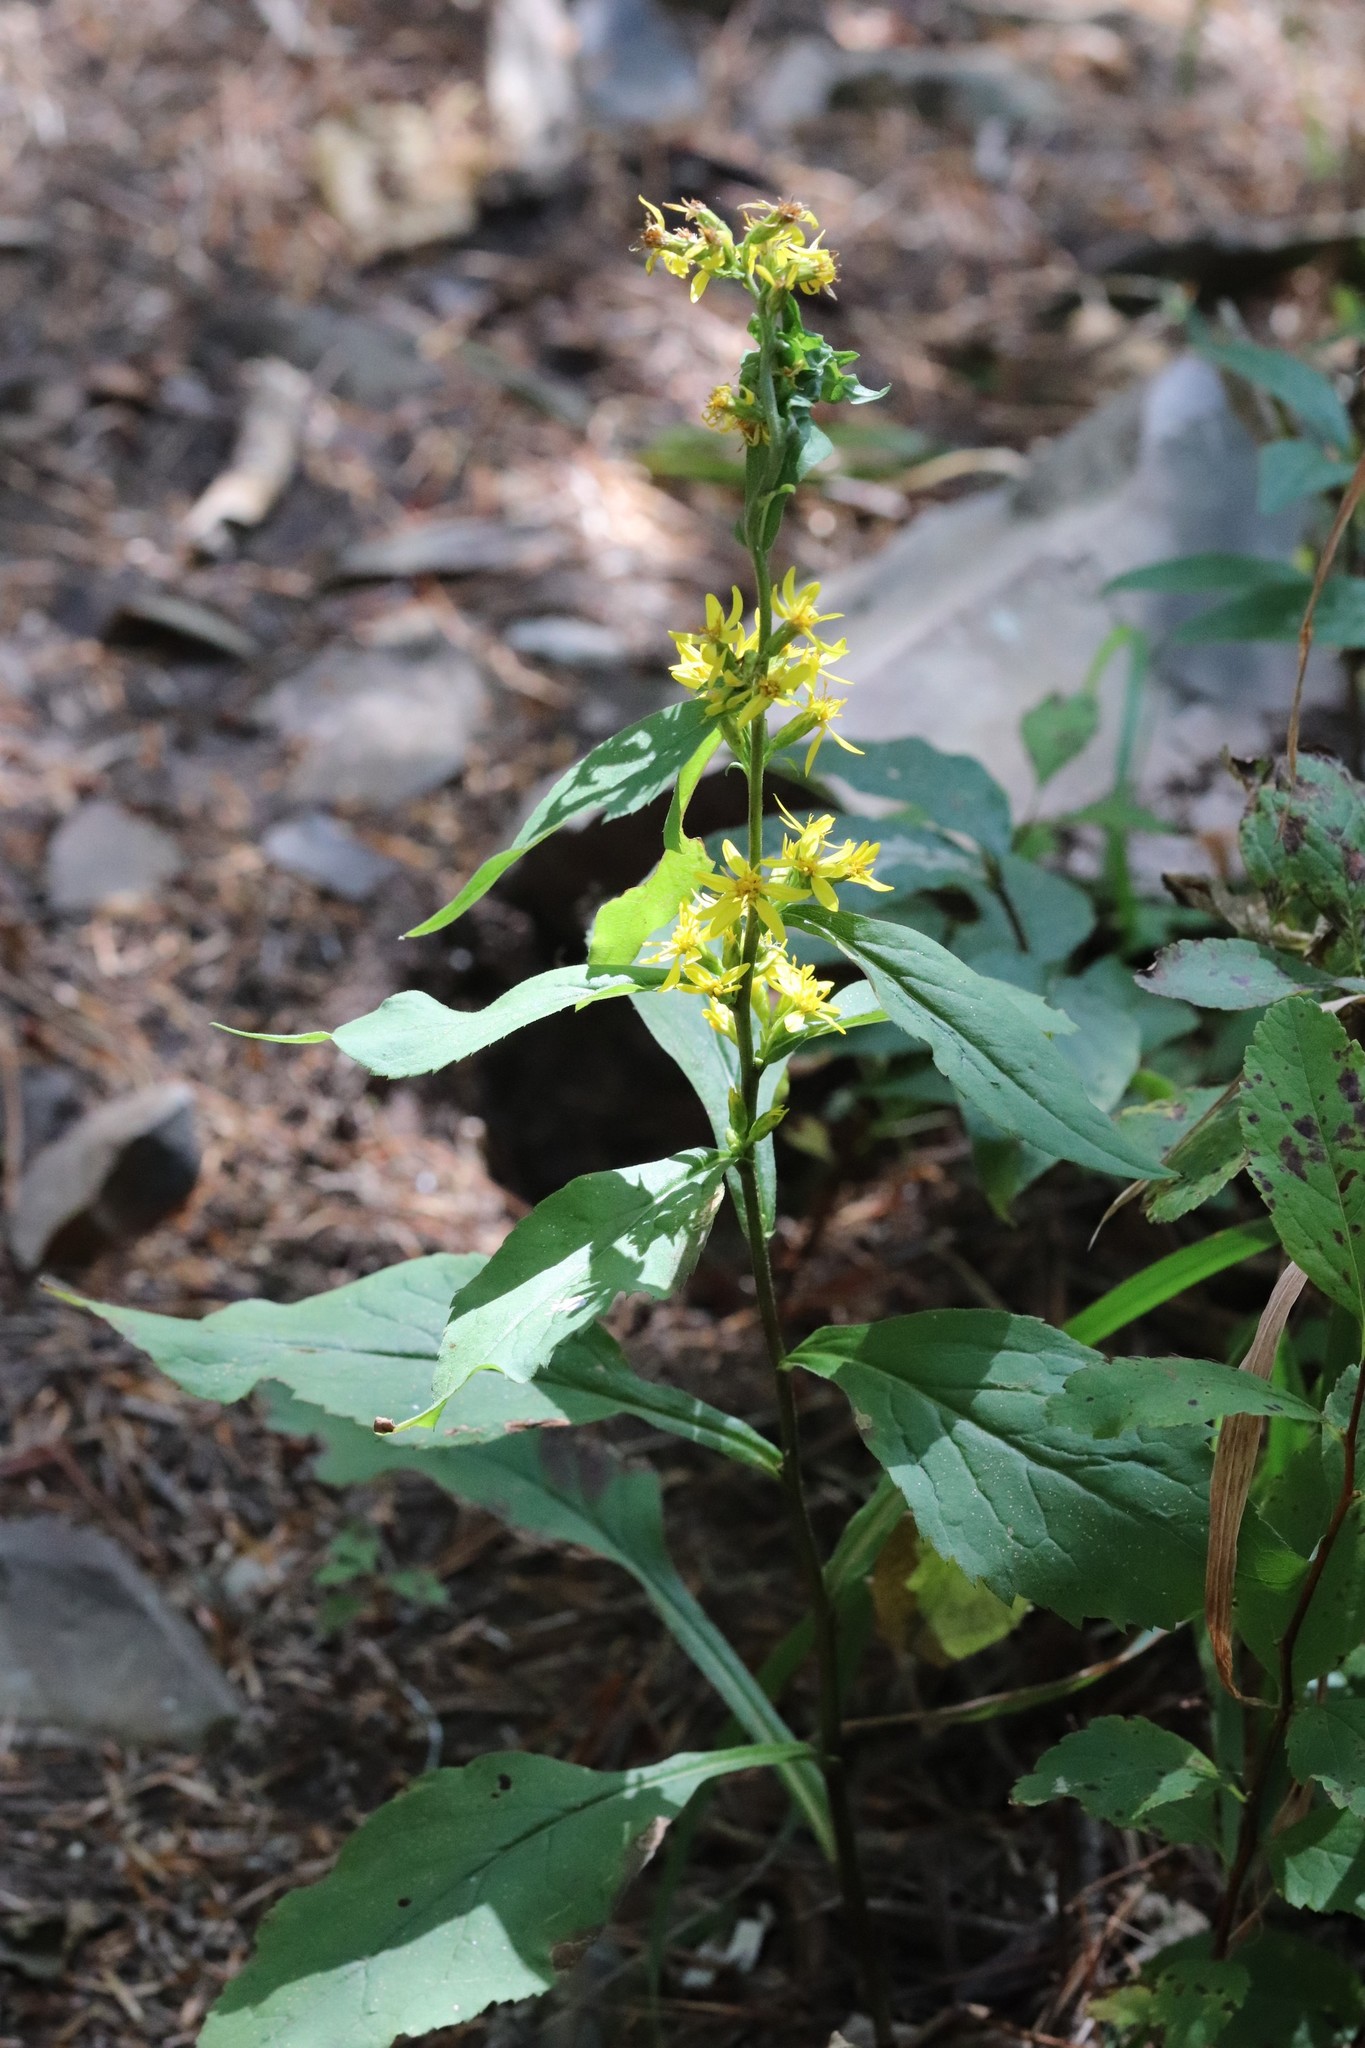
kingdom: Plantae
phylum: Tracheophyta
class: Magnoliopsida
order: Asterales
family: Asteraceae
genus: Solidago
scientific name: Solidago decurrens
